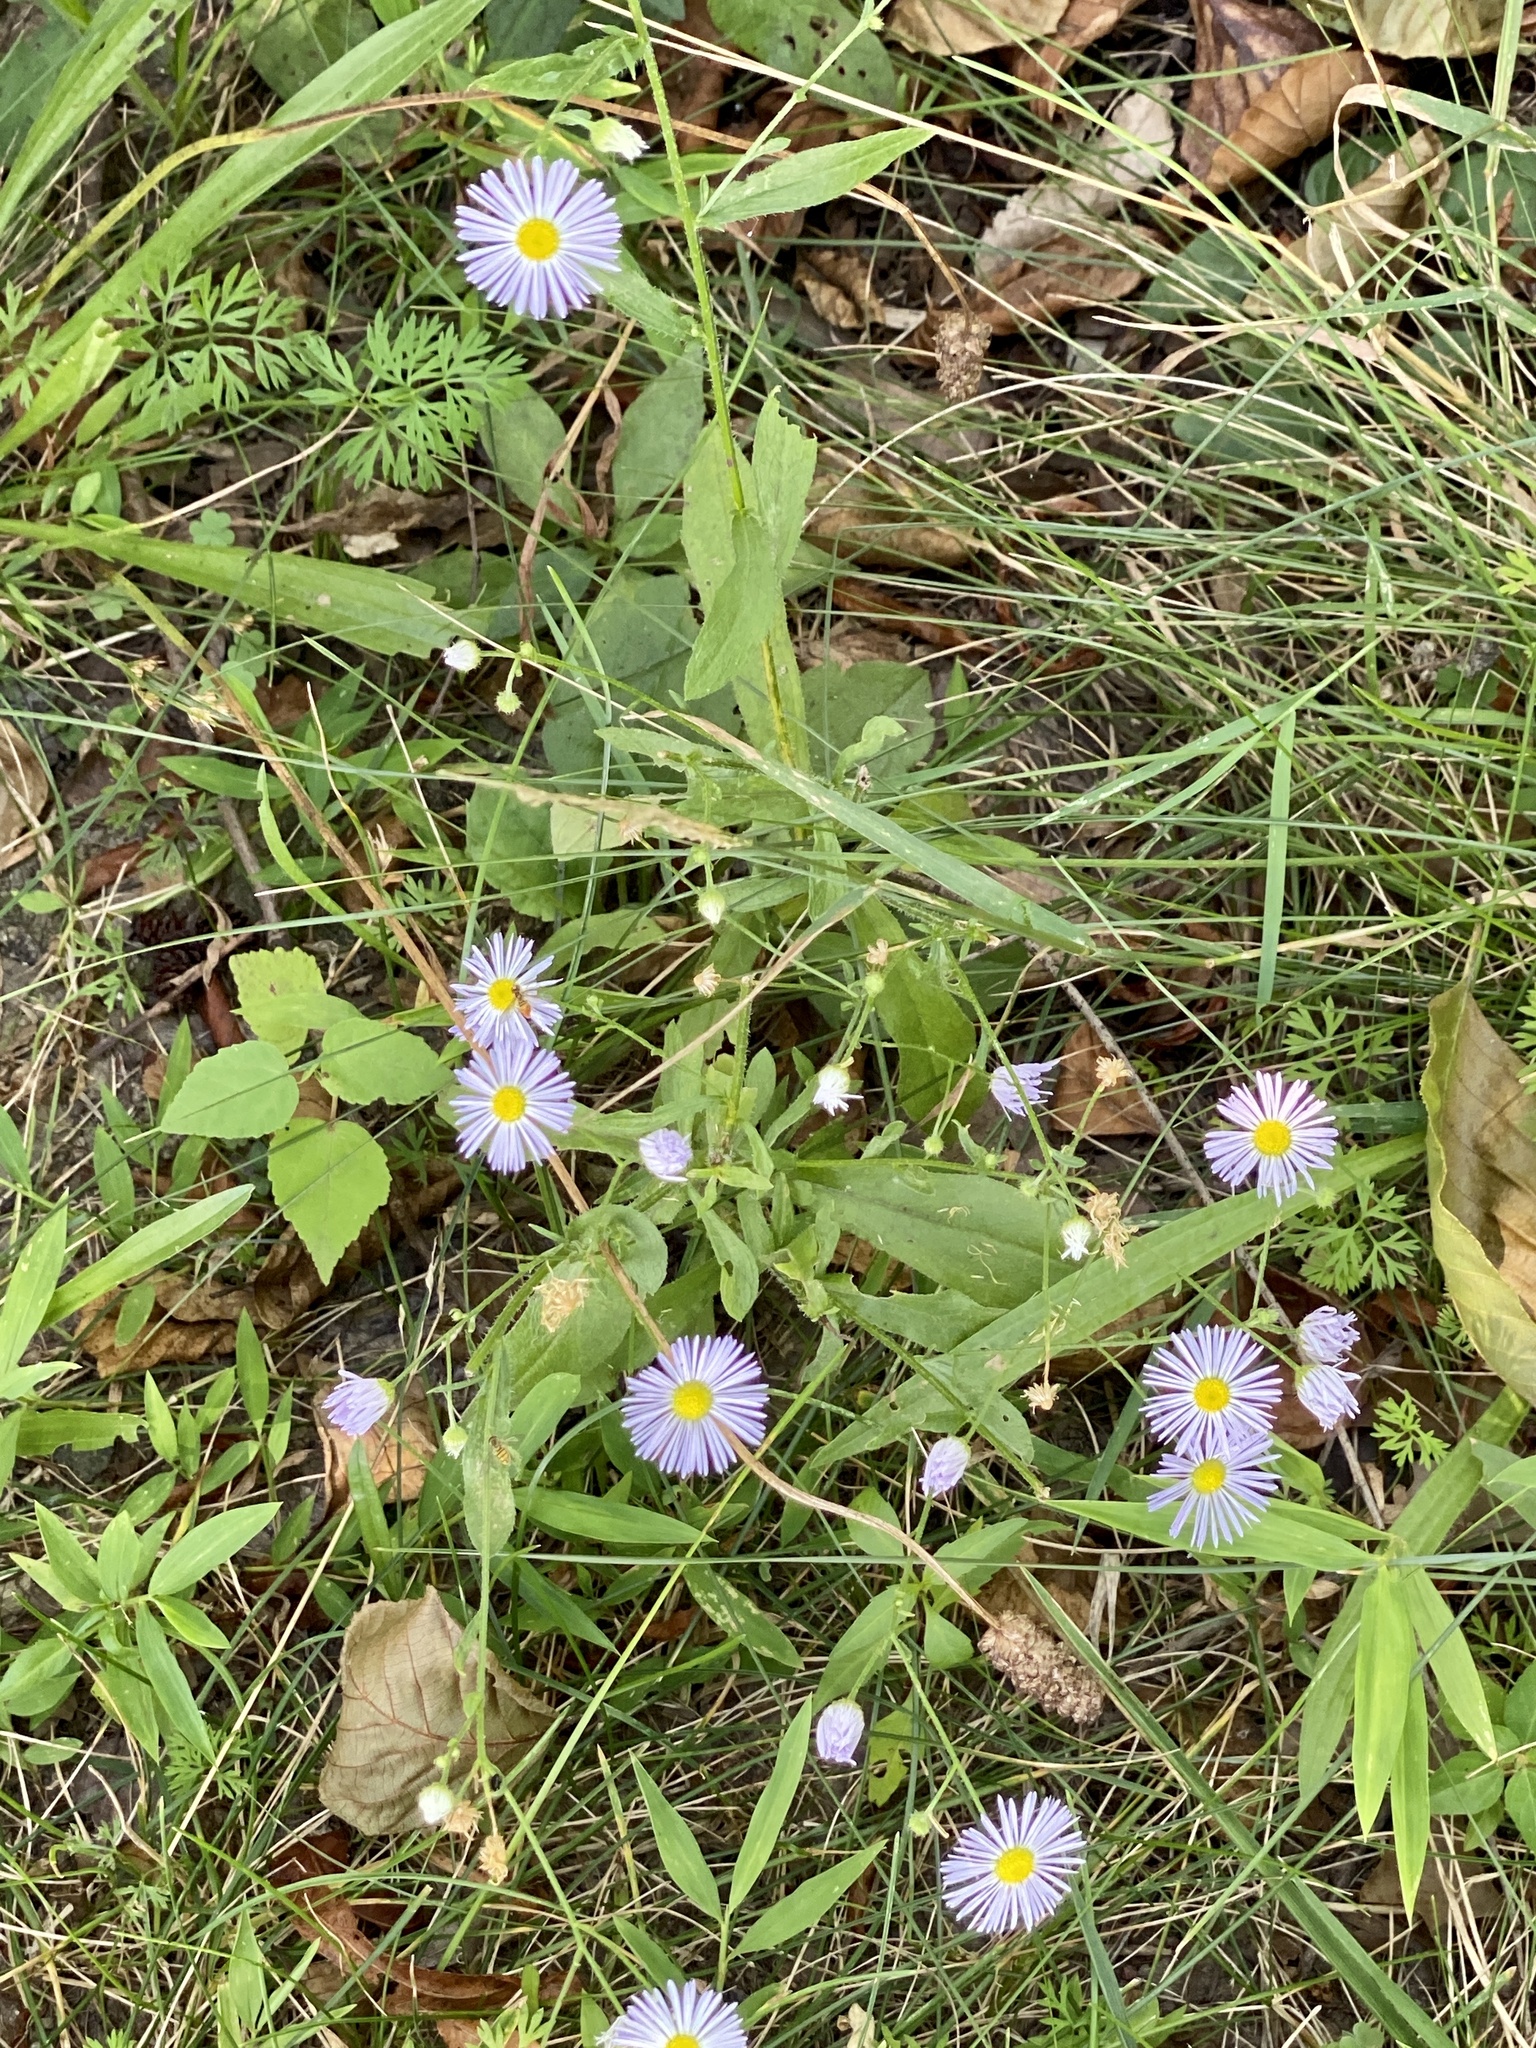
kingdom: Plantae
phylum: Tracheophyta
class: Magnoliopsida
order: Asterales
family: Asteraceae
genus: Erigeron
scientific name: Erigeron strigosus
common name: Common eastern fleabane
